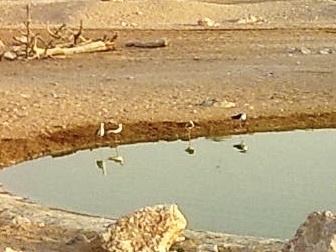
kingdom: Animalia
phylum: Chordata
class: Aves
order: Charadriiformes
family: Recurvirostridae
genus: Himantopus
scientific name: Himantopus himantopus
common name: Black-winged stilt
